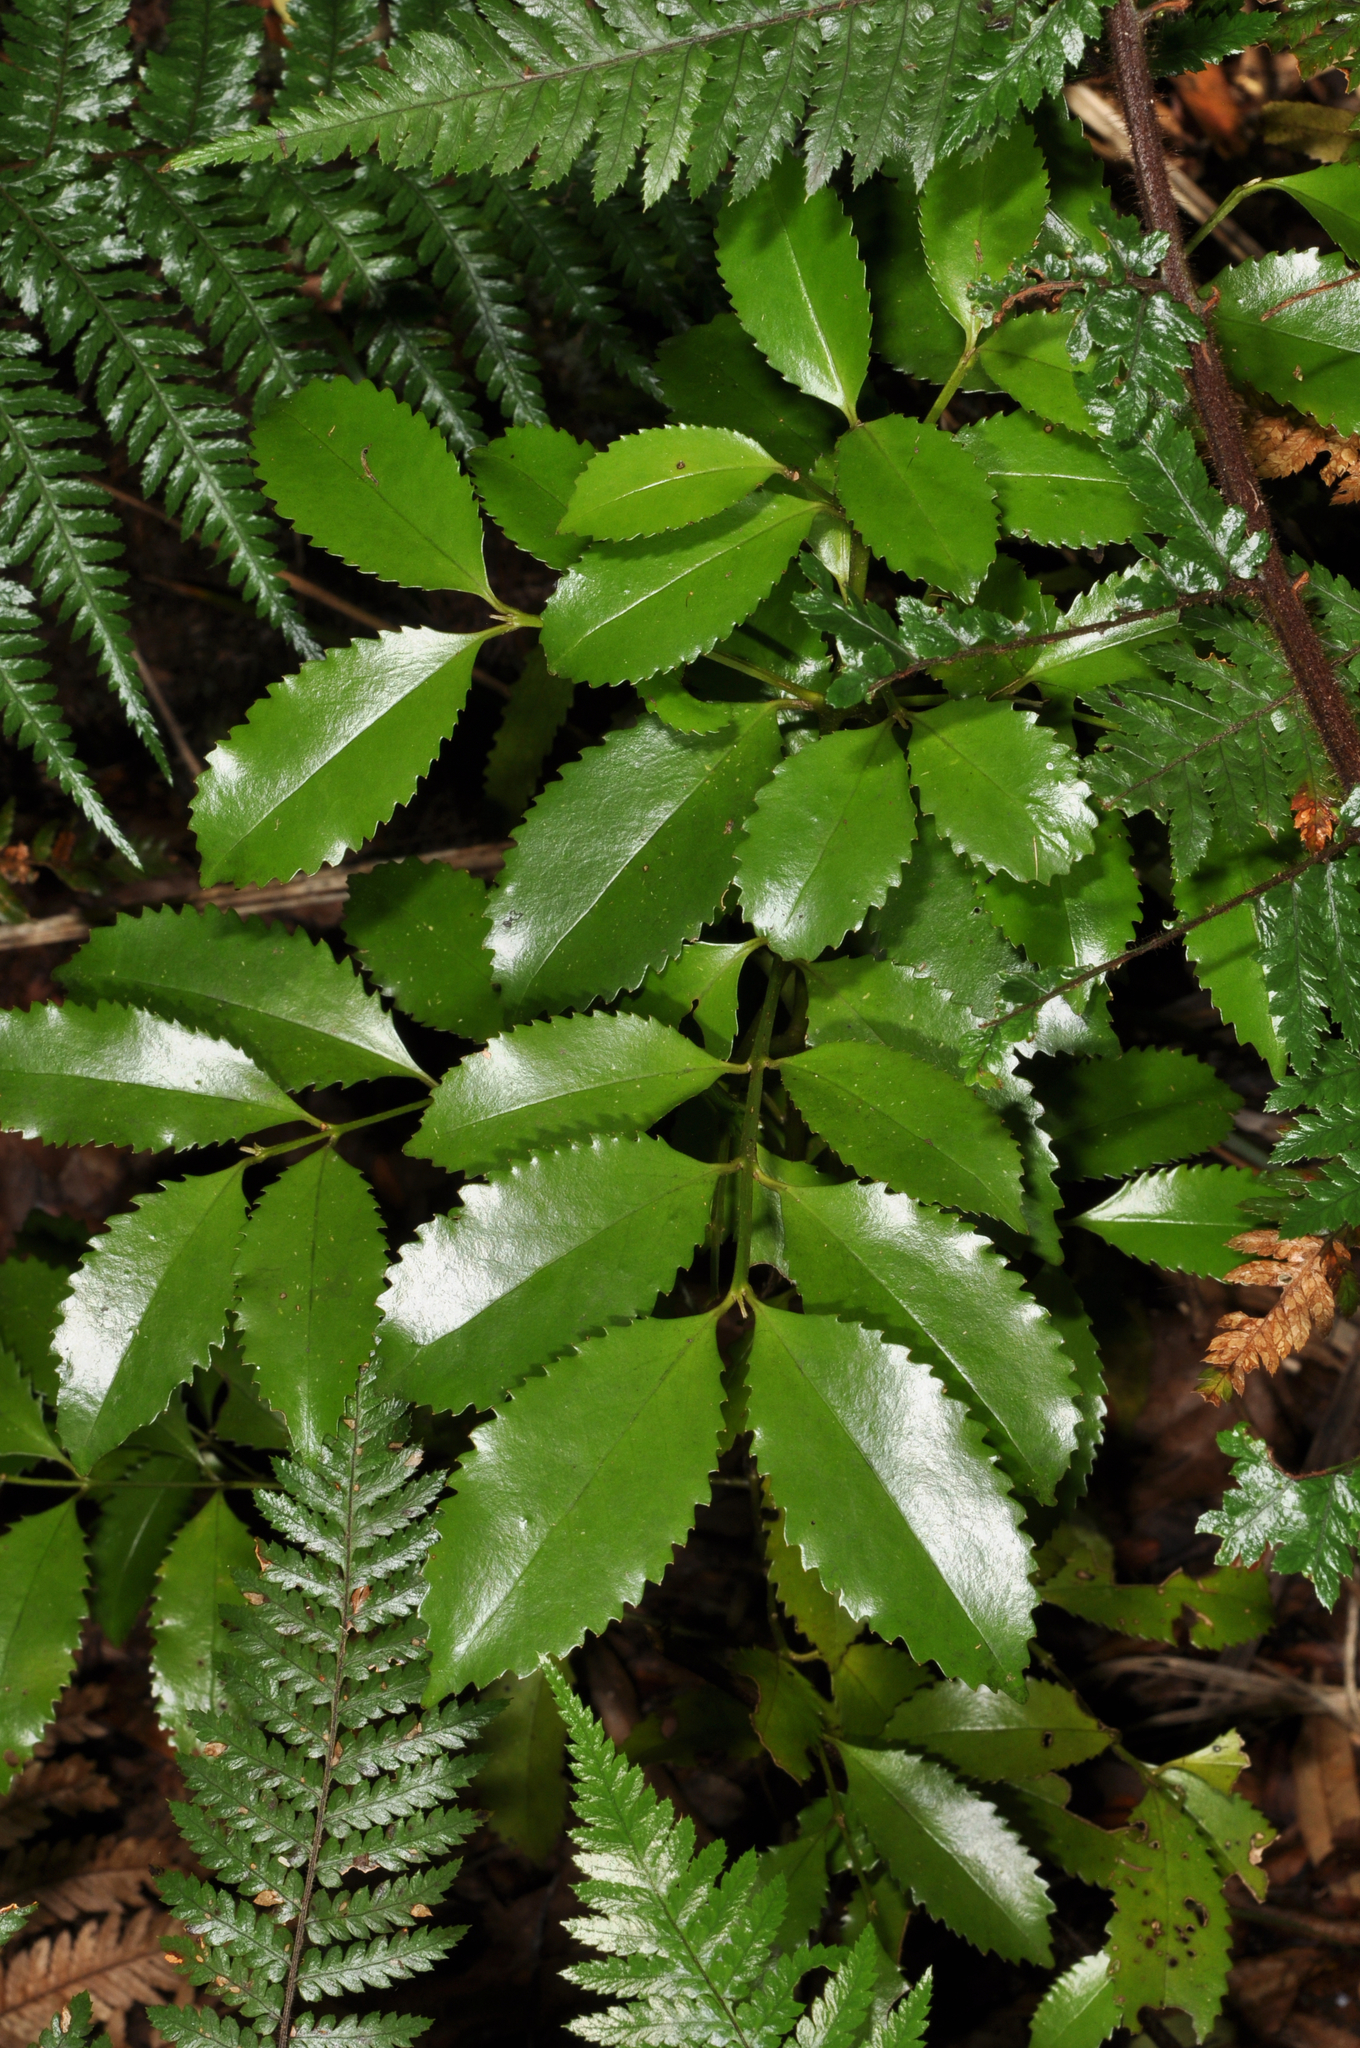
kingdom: Plantae
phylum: Tracheophyta
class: Magnoliopsida
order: Laurales
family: Atherospermataceae
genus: Laurelia
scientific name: Laurelia novae-zelandiae
